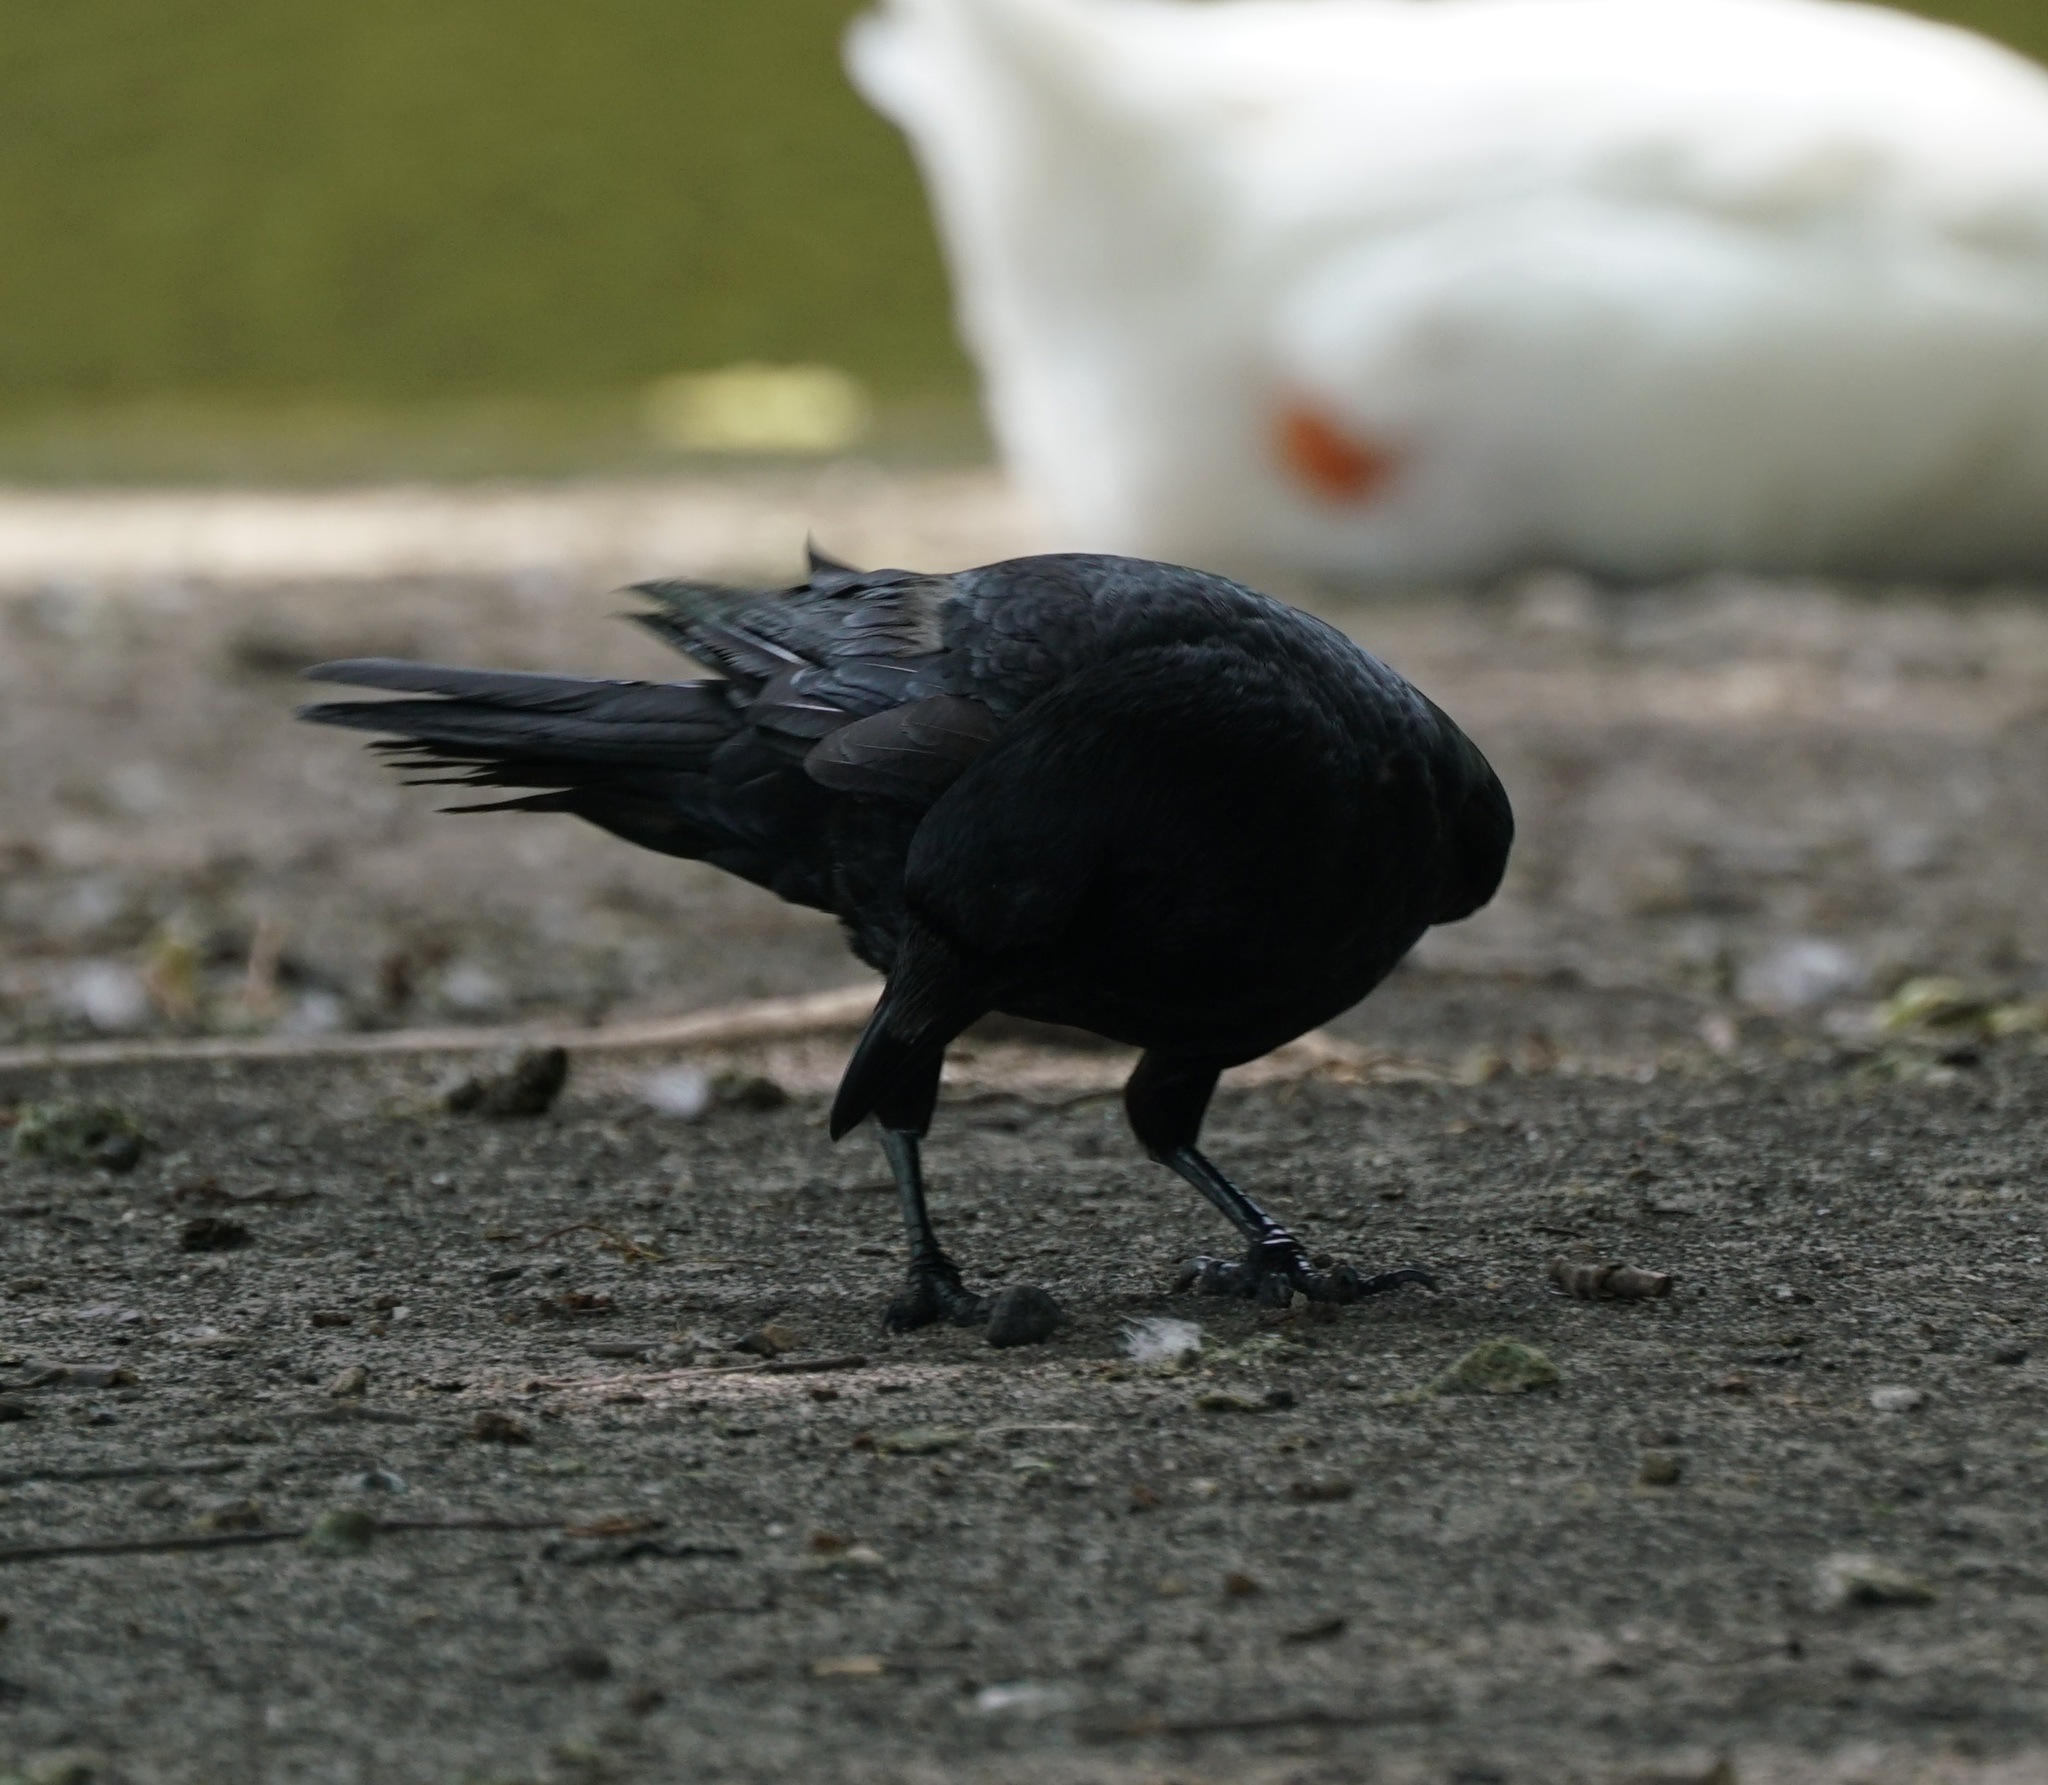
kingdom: Animalia
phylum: Chordata
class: Aves
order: Passeriformes
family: Corvidae
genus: Corvus
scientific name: Corvus corone
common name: Carrion crow
